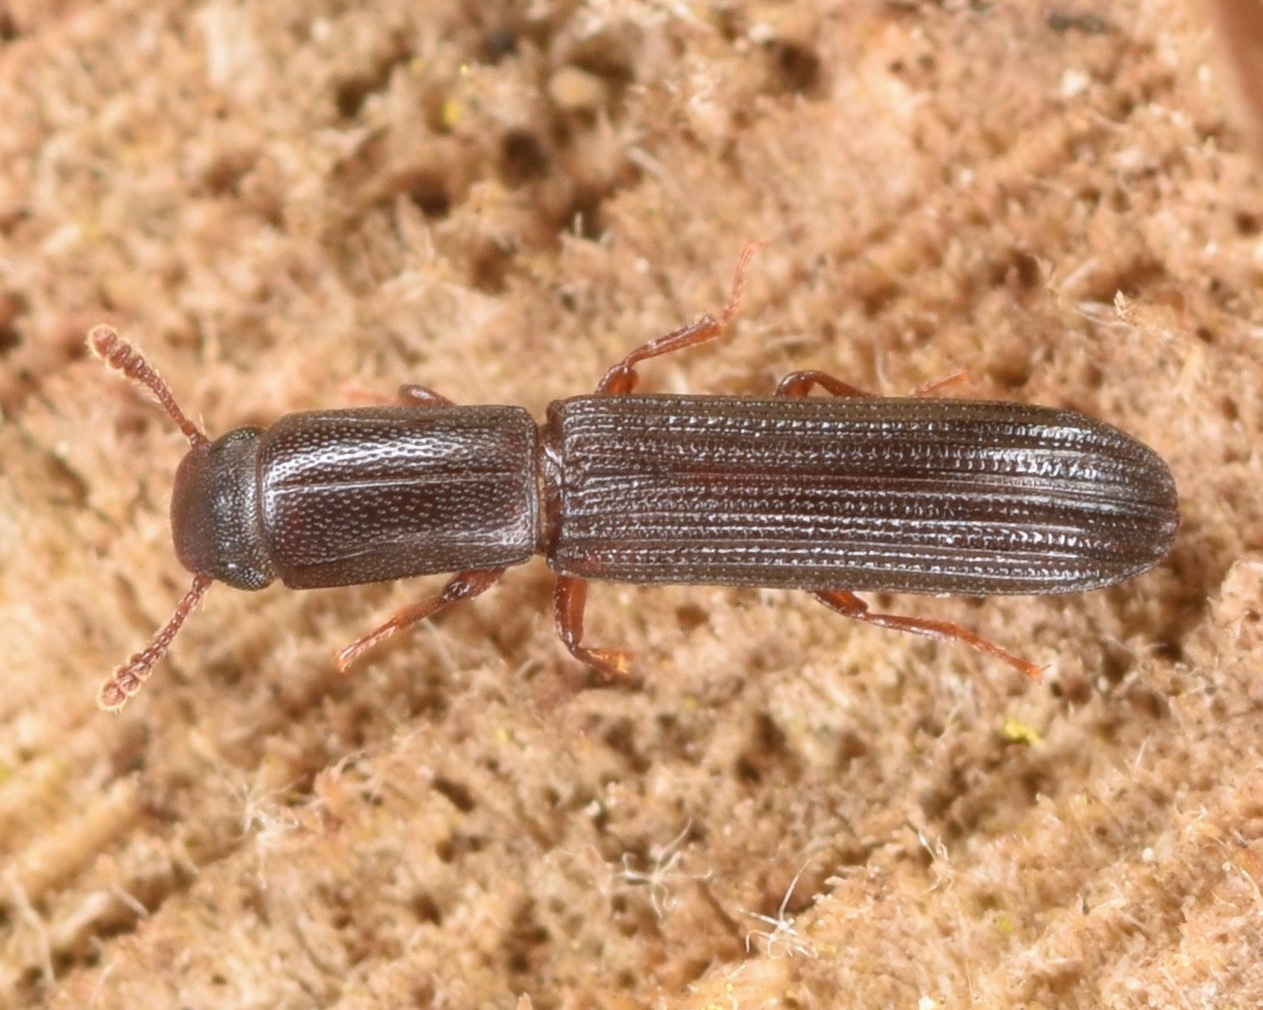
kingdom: Animalia
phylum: Arthropoda
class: Insecta
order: Coleoptera
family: Zopheridae
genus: Colydium
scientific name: Colydium lineola
